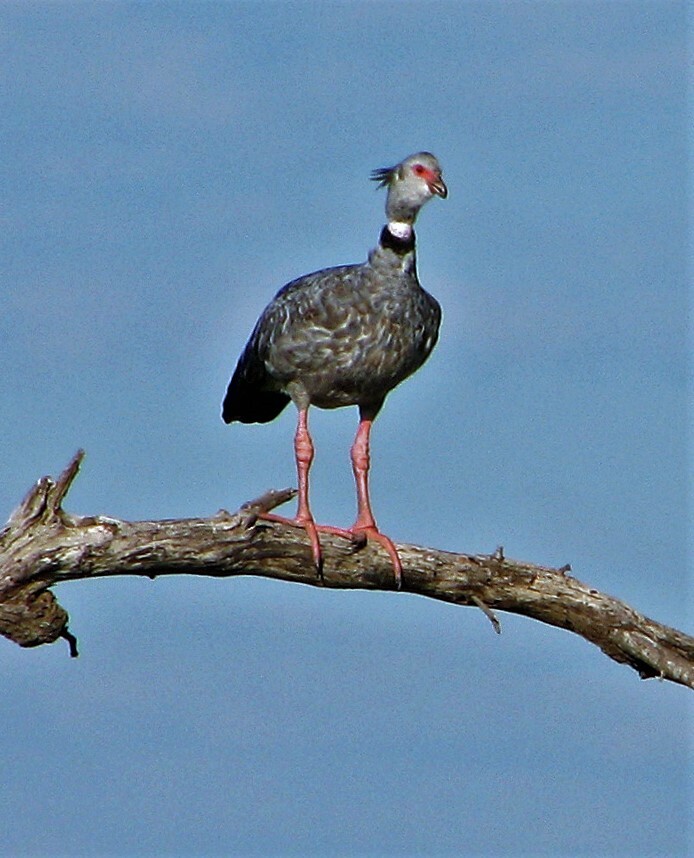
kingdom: Animalia
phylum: Chordata
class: Aves
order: Anseriformes
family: Anhimidae
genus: Chauna
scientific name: Chauna torquata
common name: Southern screamer
